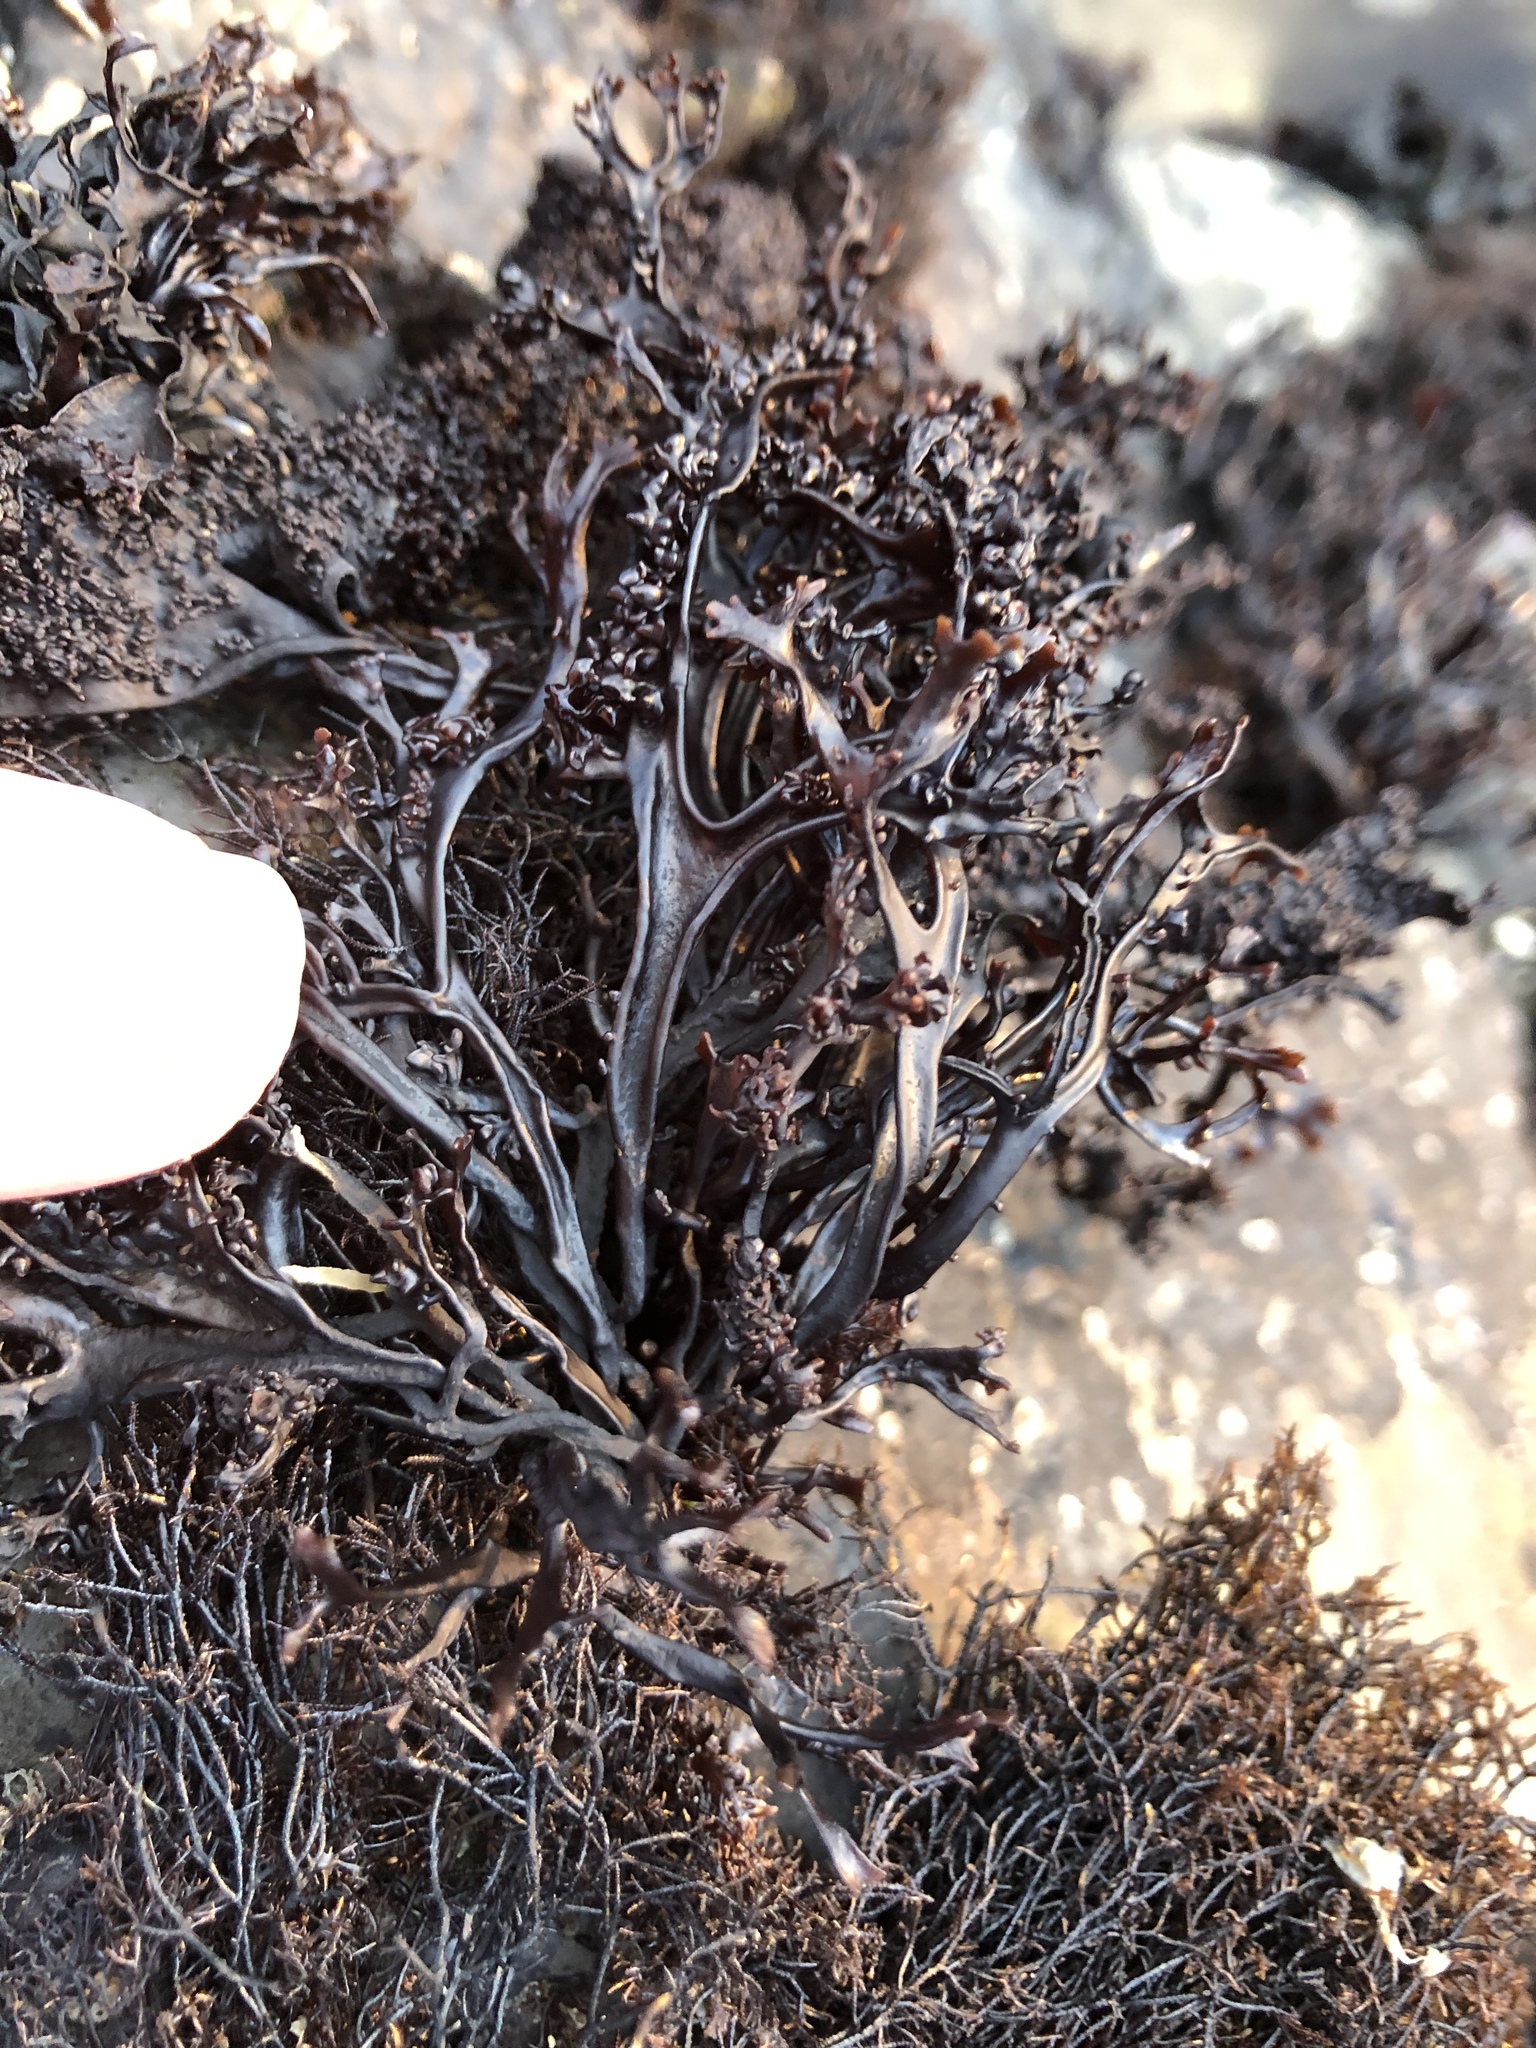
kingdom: Plantae
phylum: Rhodophyta
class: Florideophyceae
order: Gigartinales
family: Phyllophoraceae
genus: Mastocarpus
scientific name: Mastocarpus jardinii
